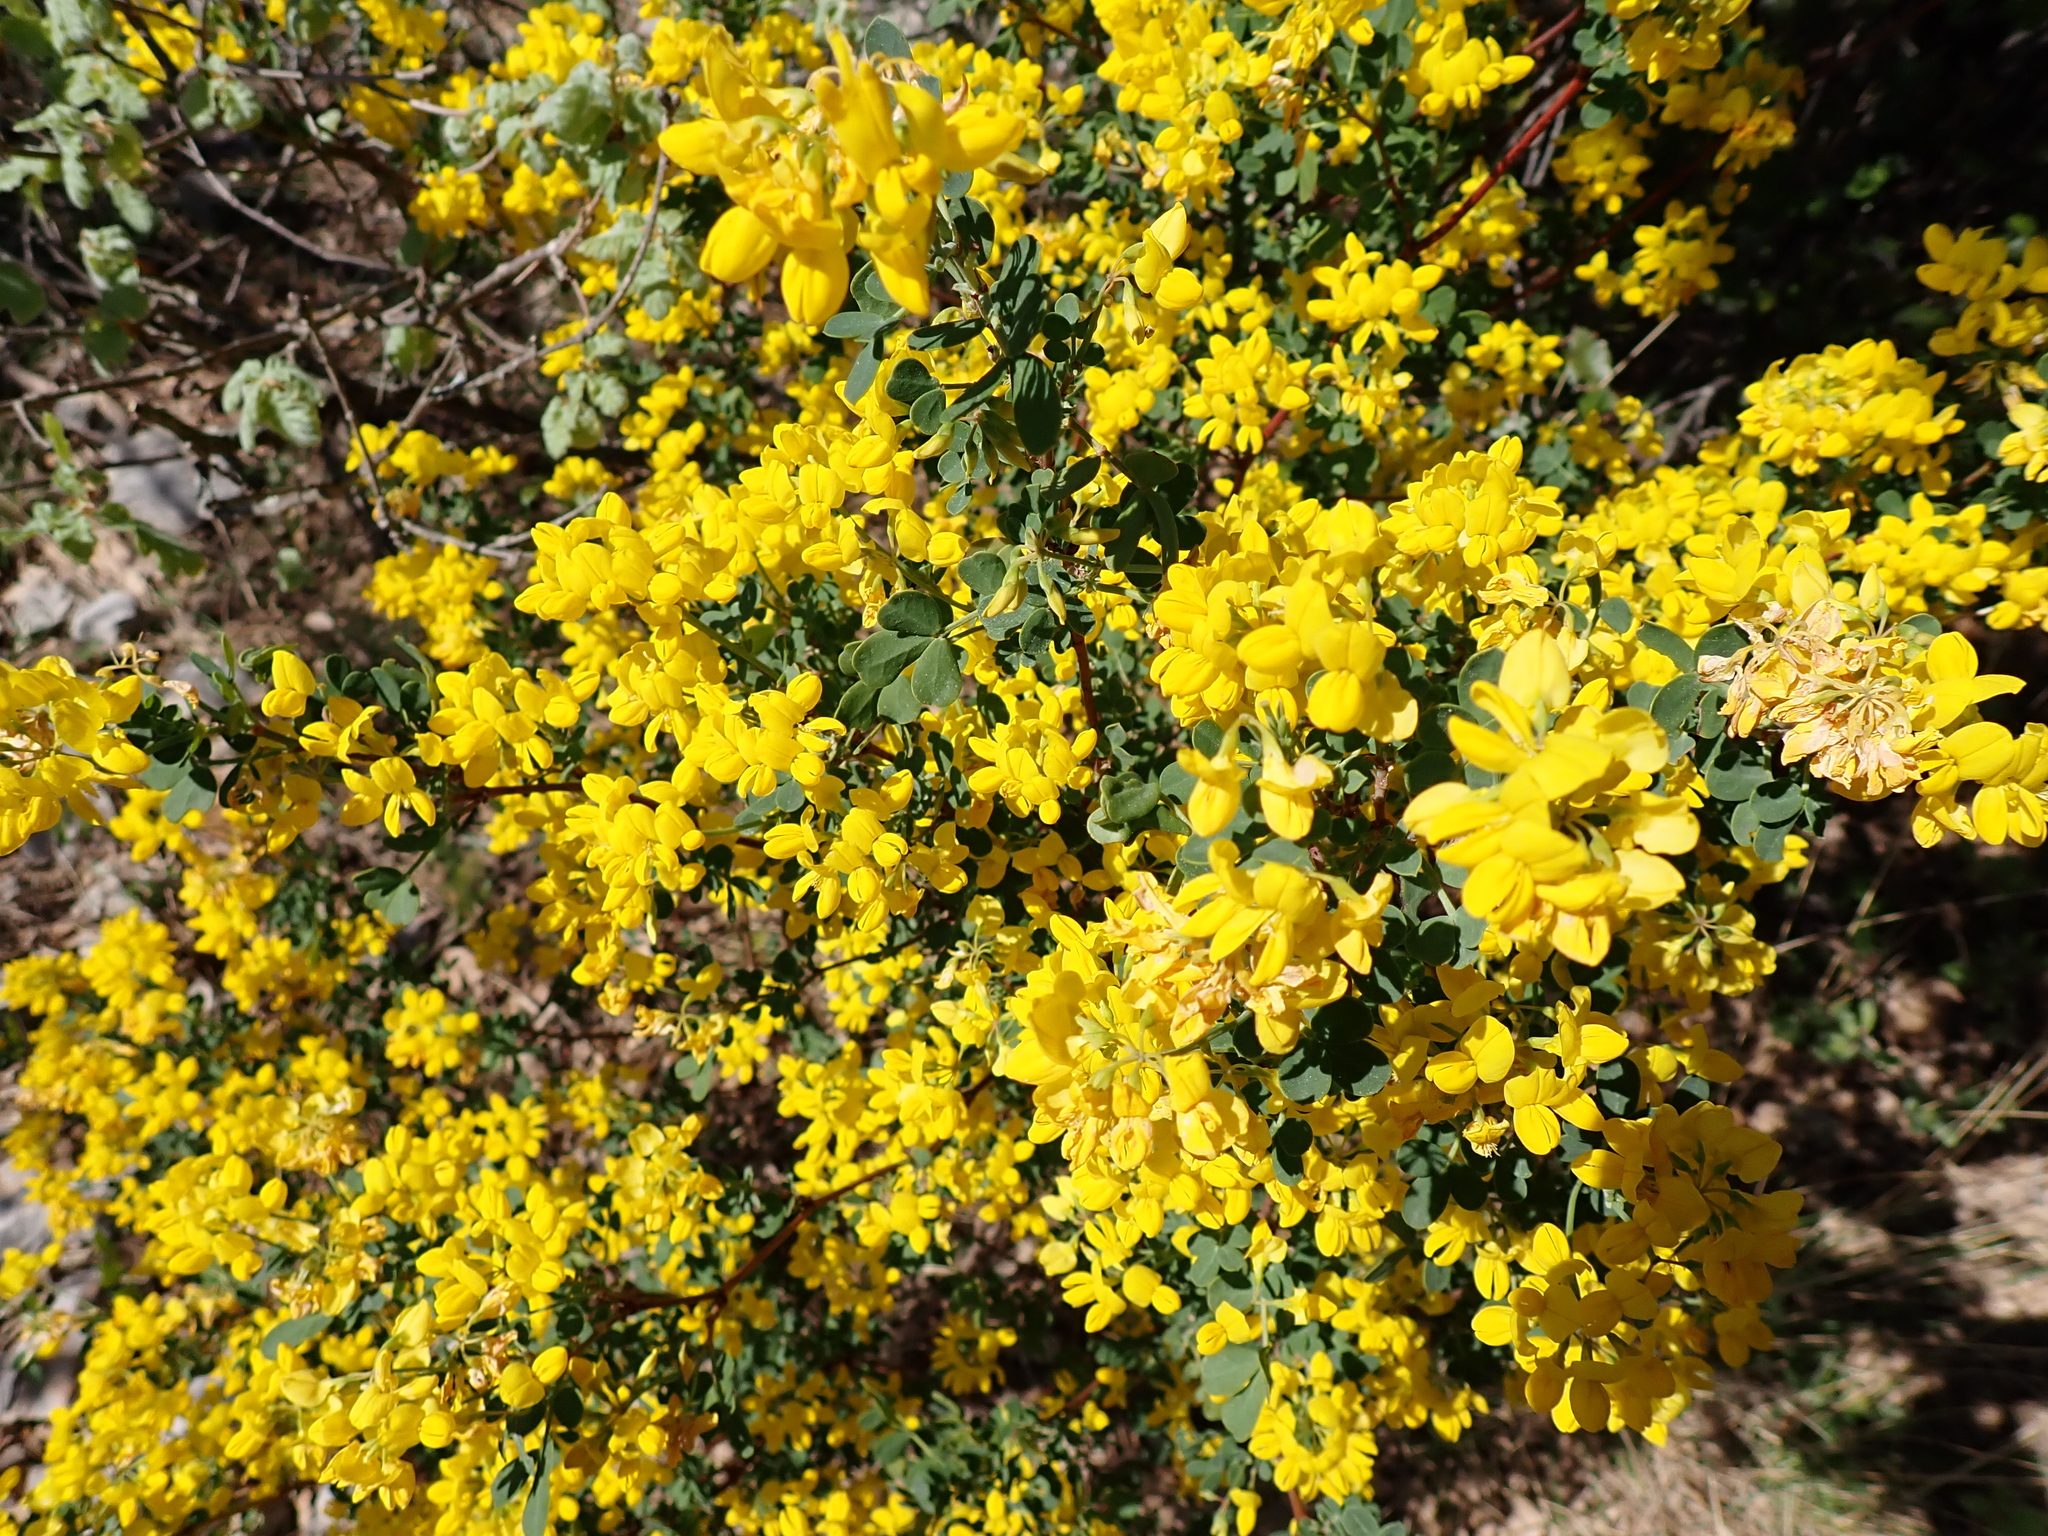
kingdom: Plantae
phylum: Tracheophyta
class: Magnoliopsida
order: Fabales
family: Fabaceae
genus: Coronilla
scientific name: Coronilla valentina
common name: Shrubby scorpion-vetch
